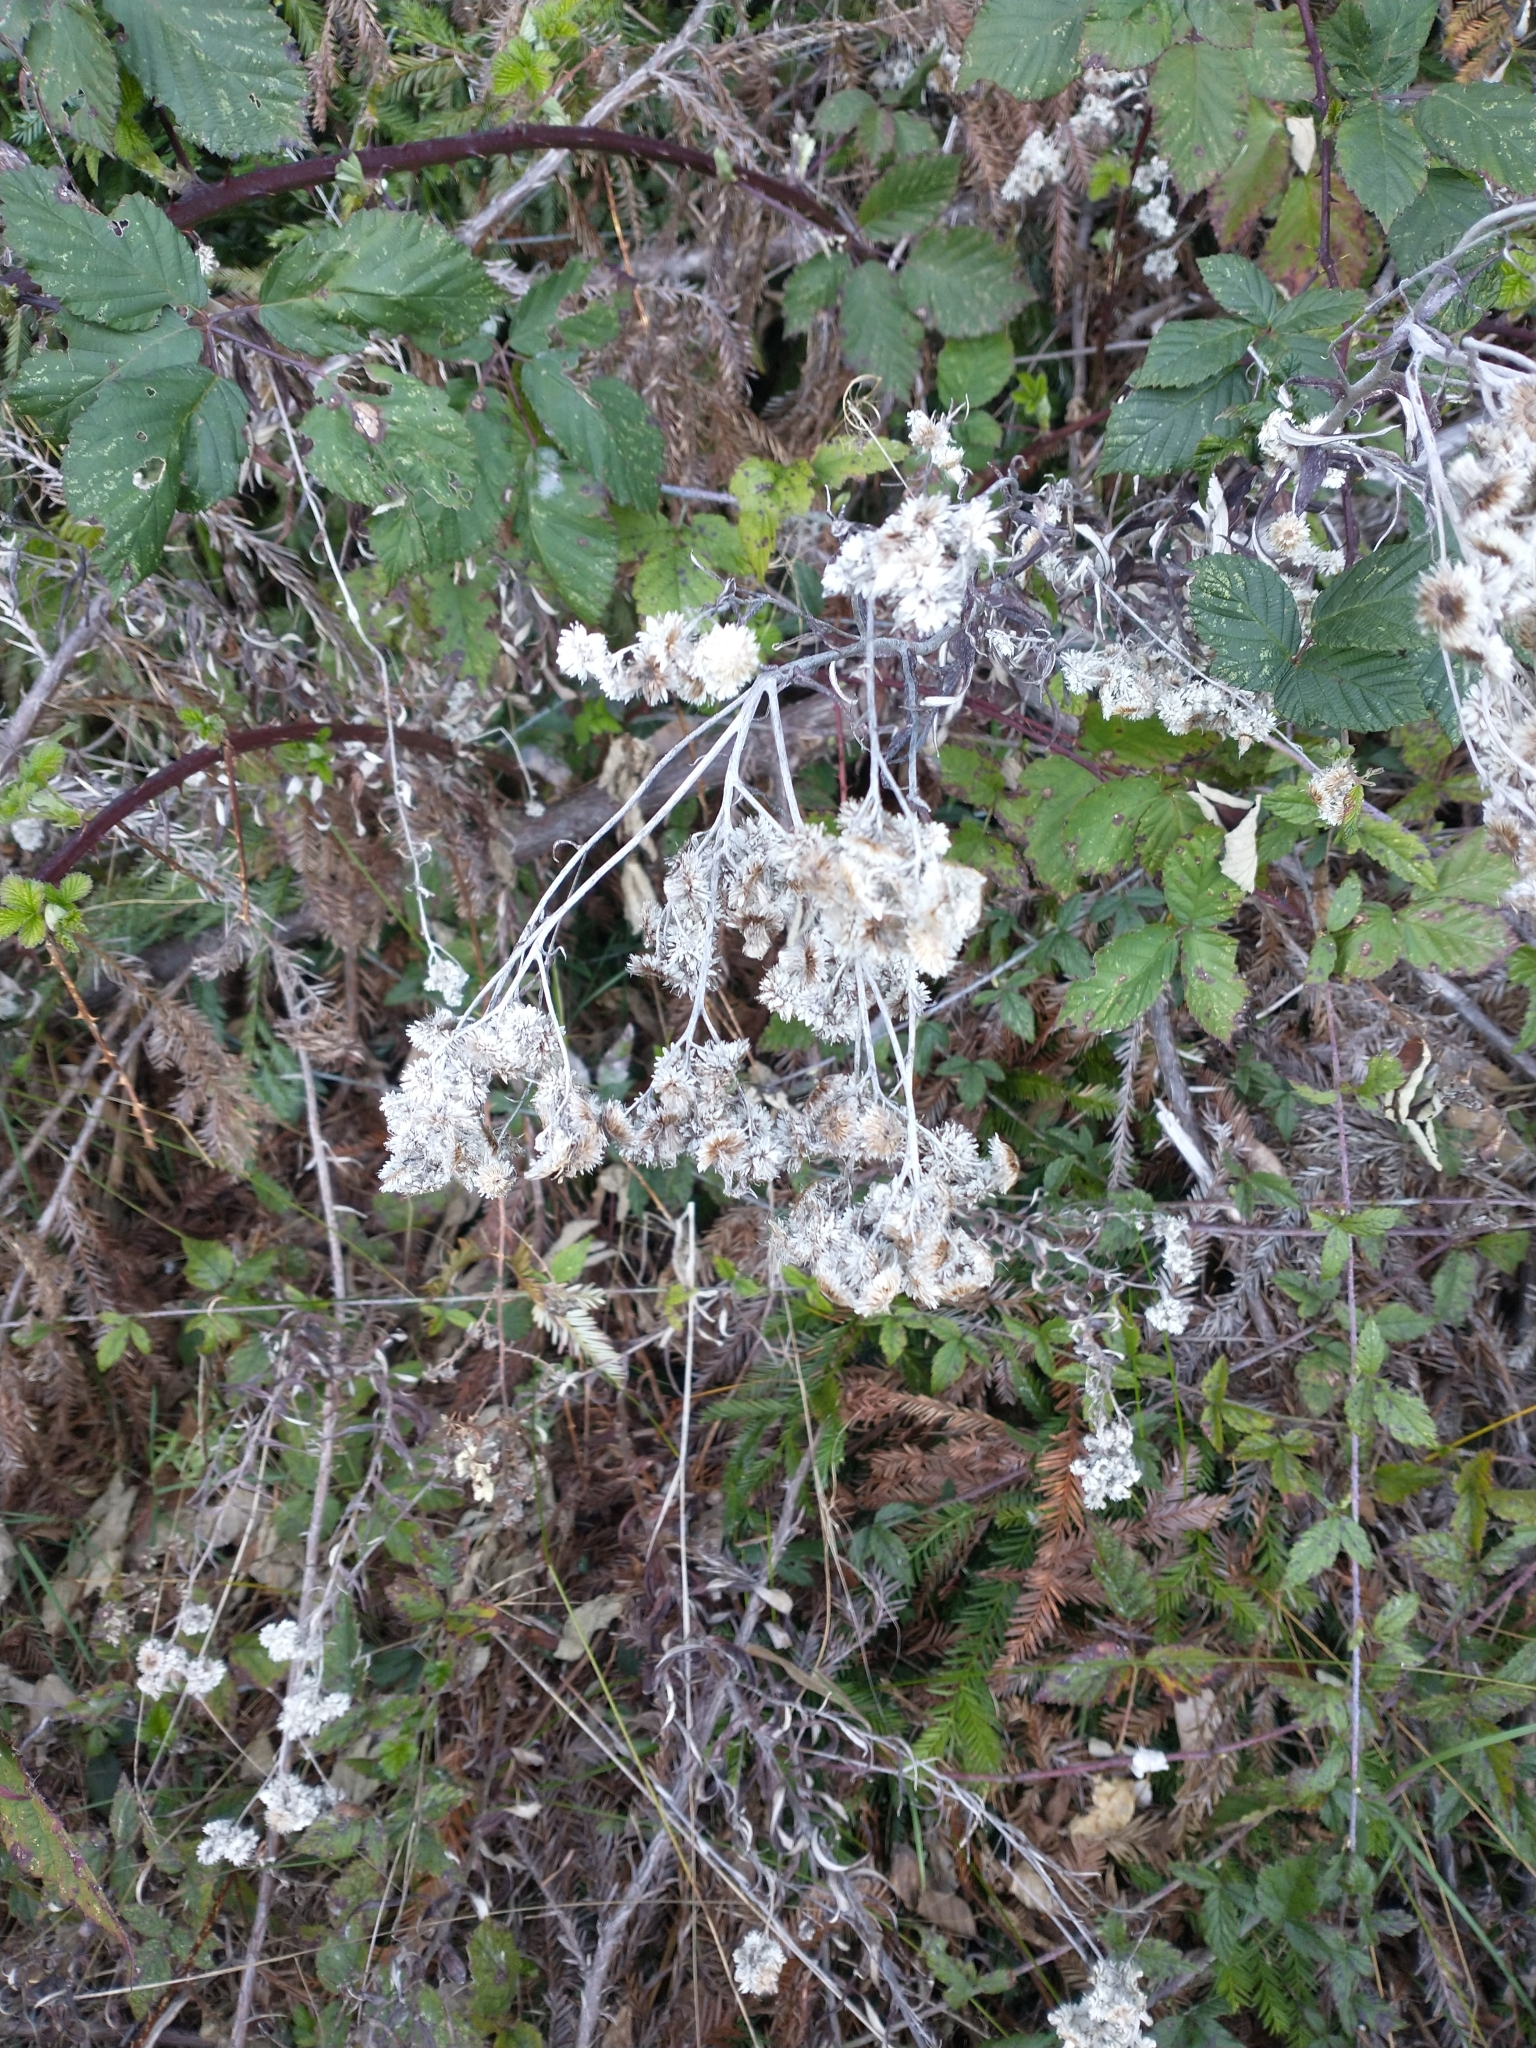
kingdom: Plantae
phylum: Tracheophyta
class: Magnoliopsida
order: Asterales
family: Asteraceae
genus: Anaphalis
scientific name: Anaphalis margaritacea
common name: Pearly everlasting
